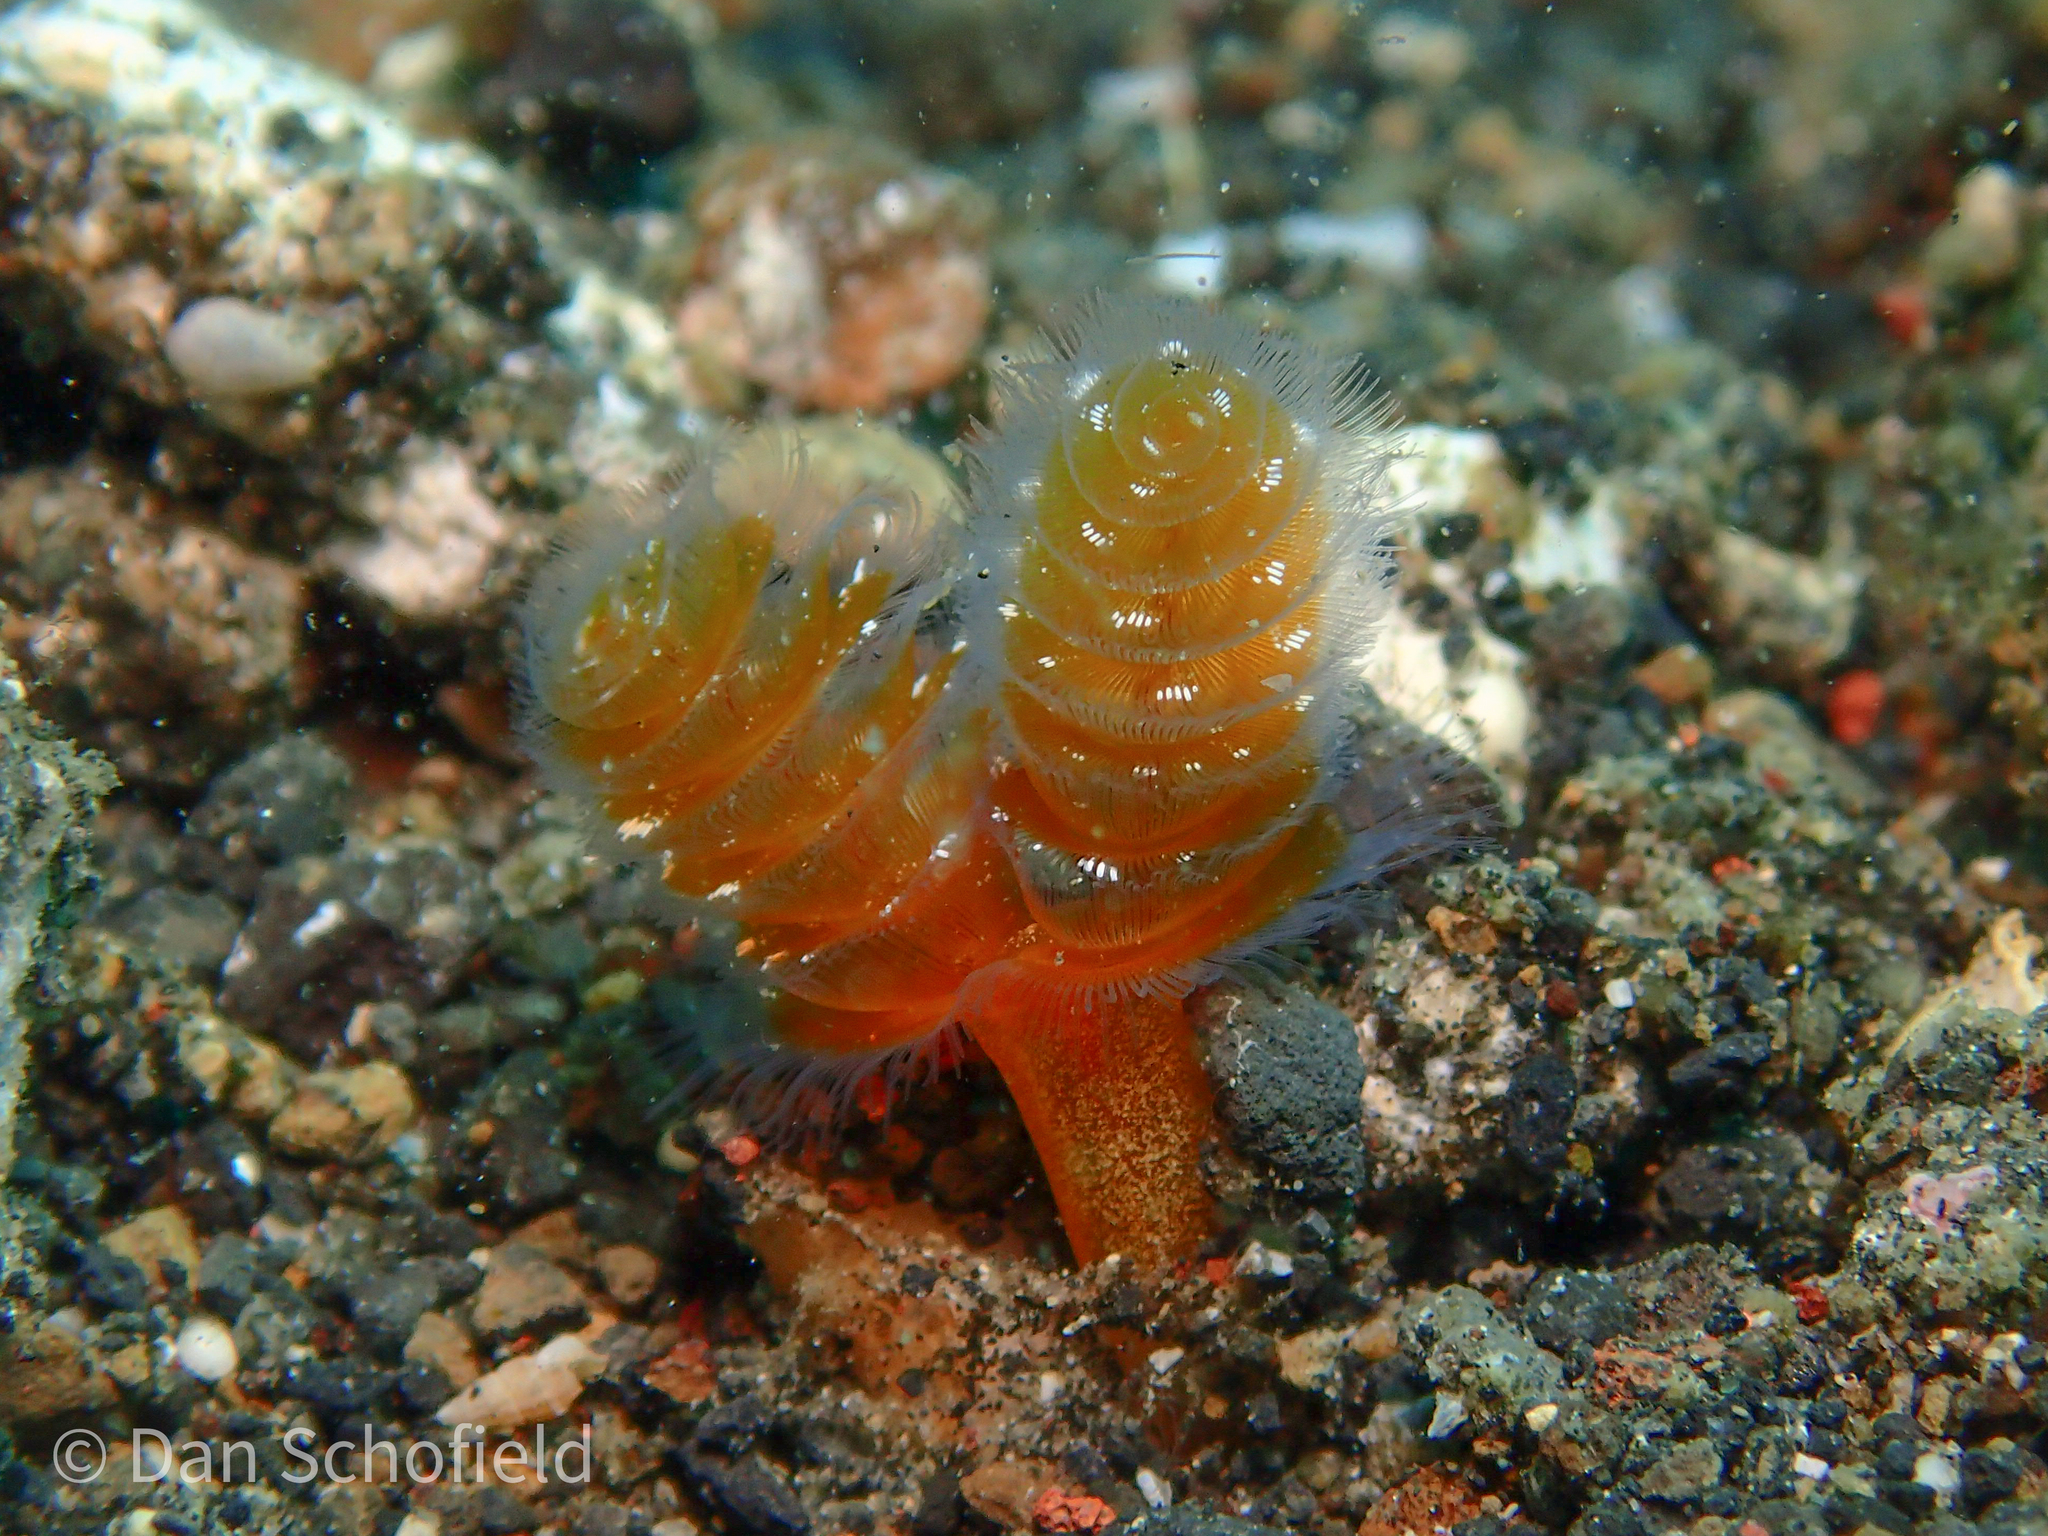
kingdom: Animalia
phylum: Phoronida
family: Phoronidae
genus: Phoronopsis
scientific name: Phoronopsis californica
